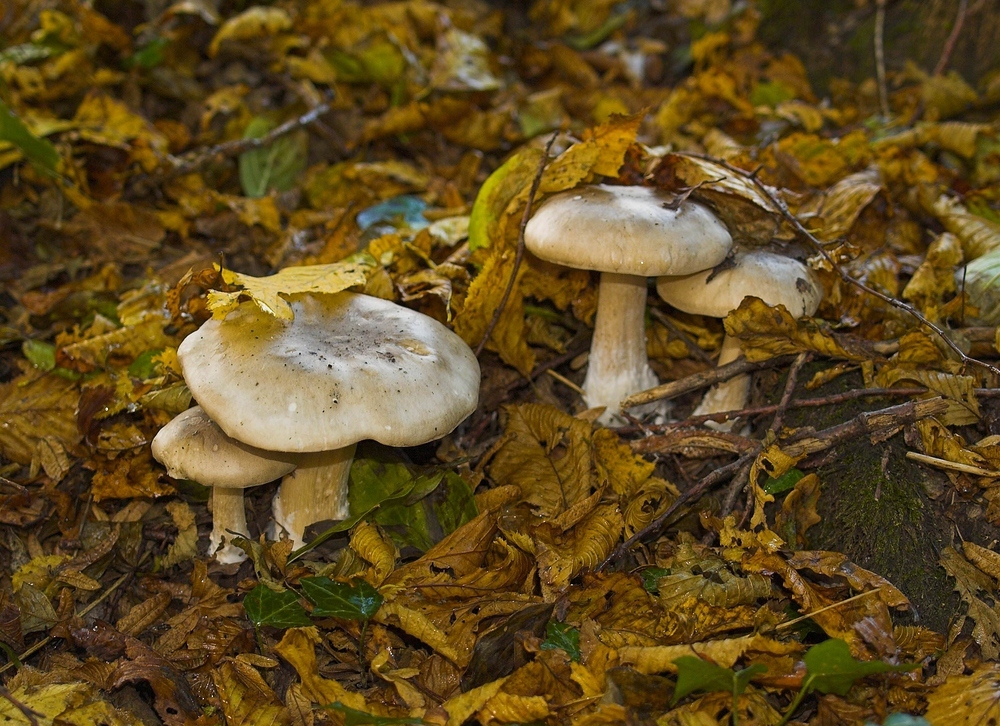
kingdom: Fungi
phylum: Basidiomycota
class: Agaricomycetes
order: Agaricales
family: Tricholomataceae
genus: Clitocybe
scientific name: Clitocybe nebularis
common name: Clouded agaric
